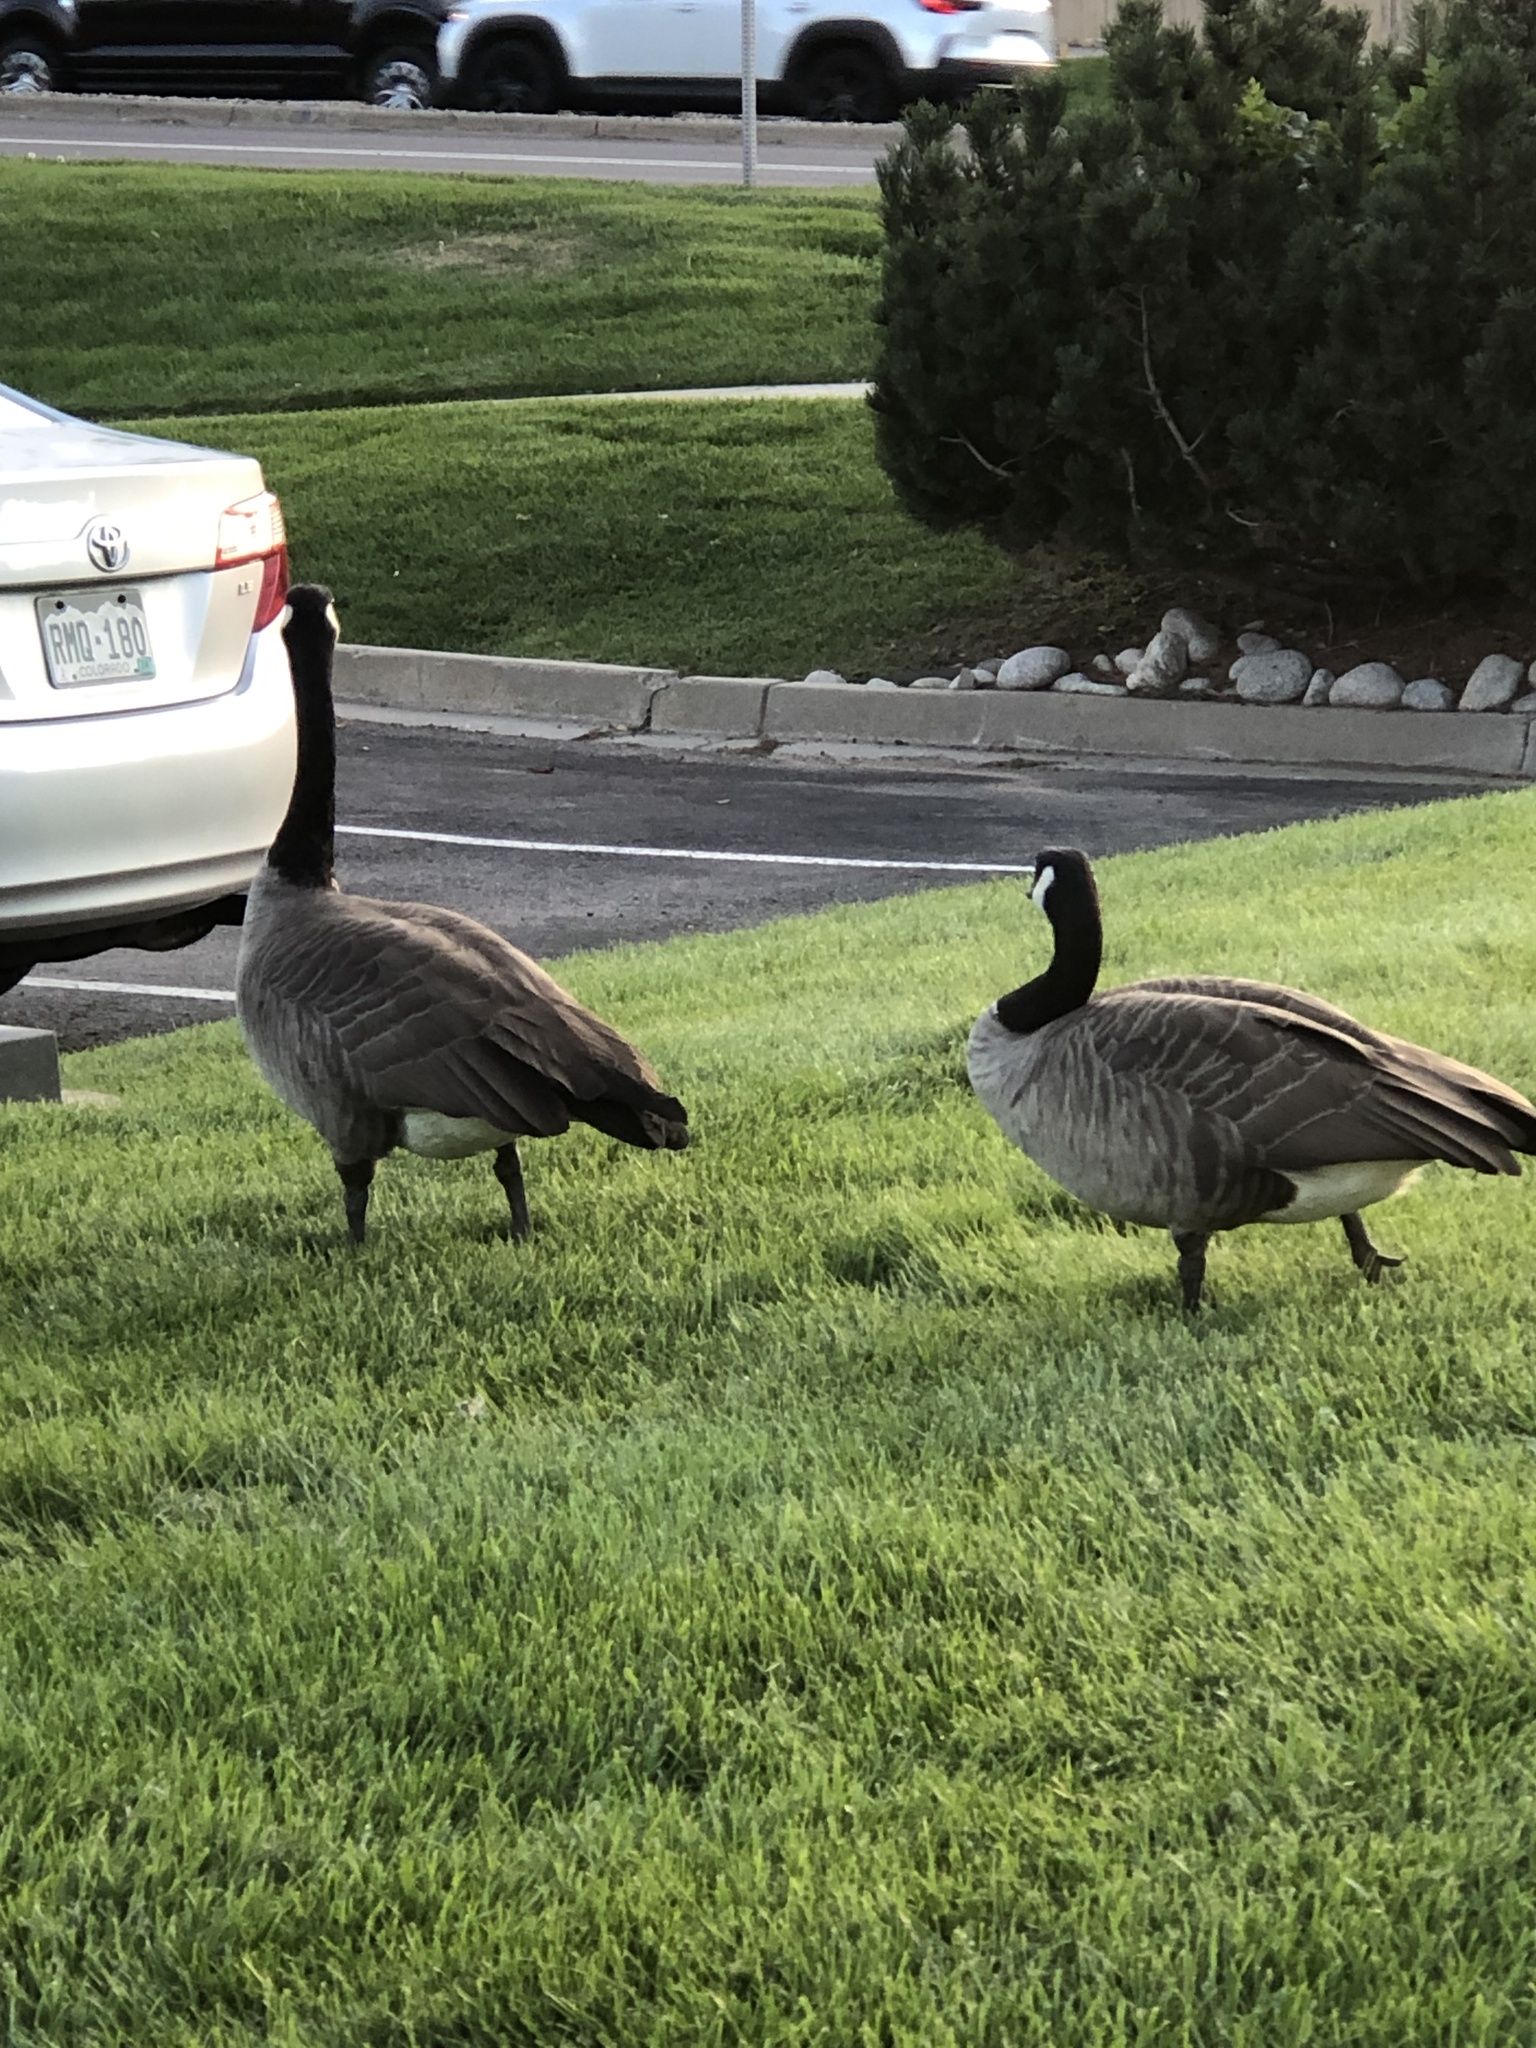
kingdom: Animalia
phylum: Chordata
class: Aves
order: Anseriformes
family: Anatidae
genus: Branta
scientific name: Branta canadensis
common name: Canada goose
